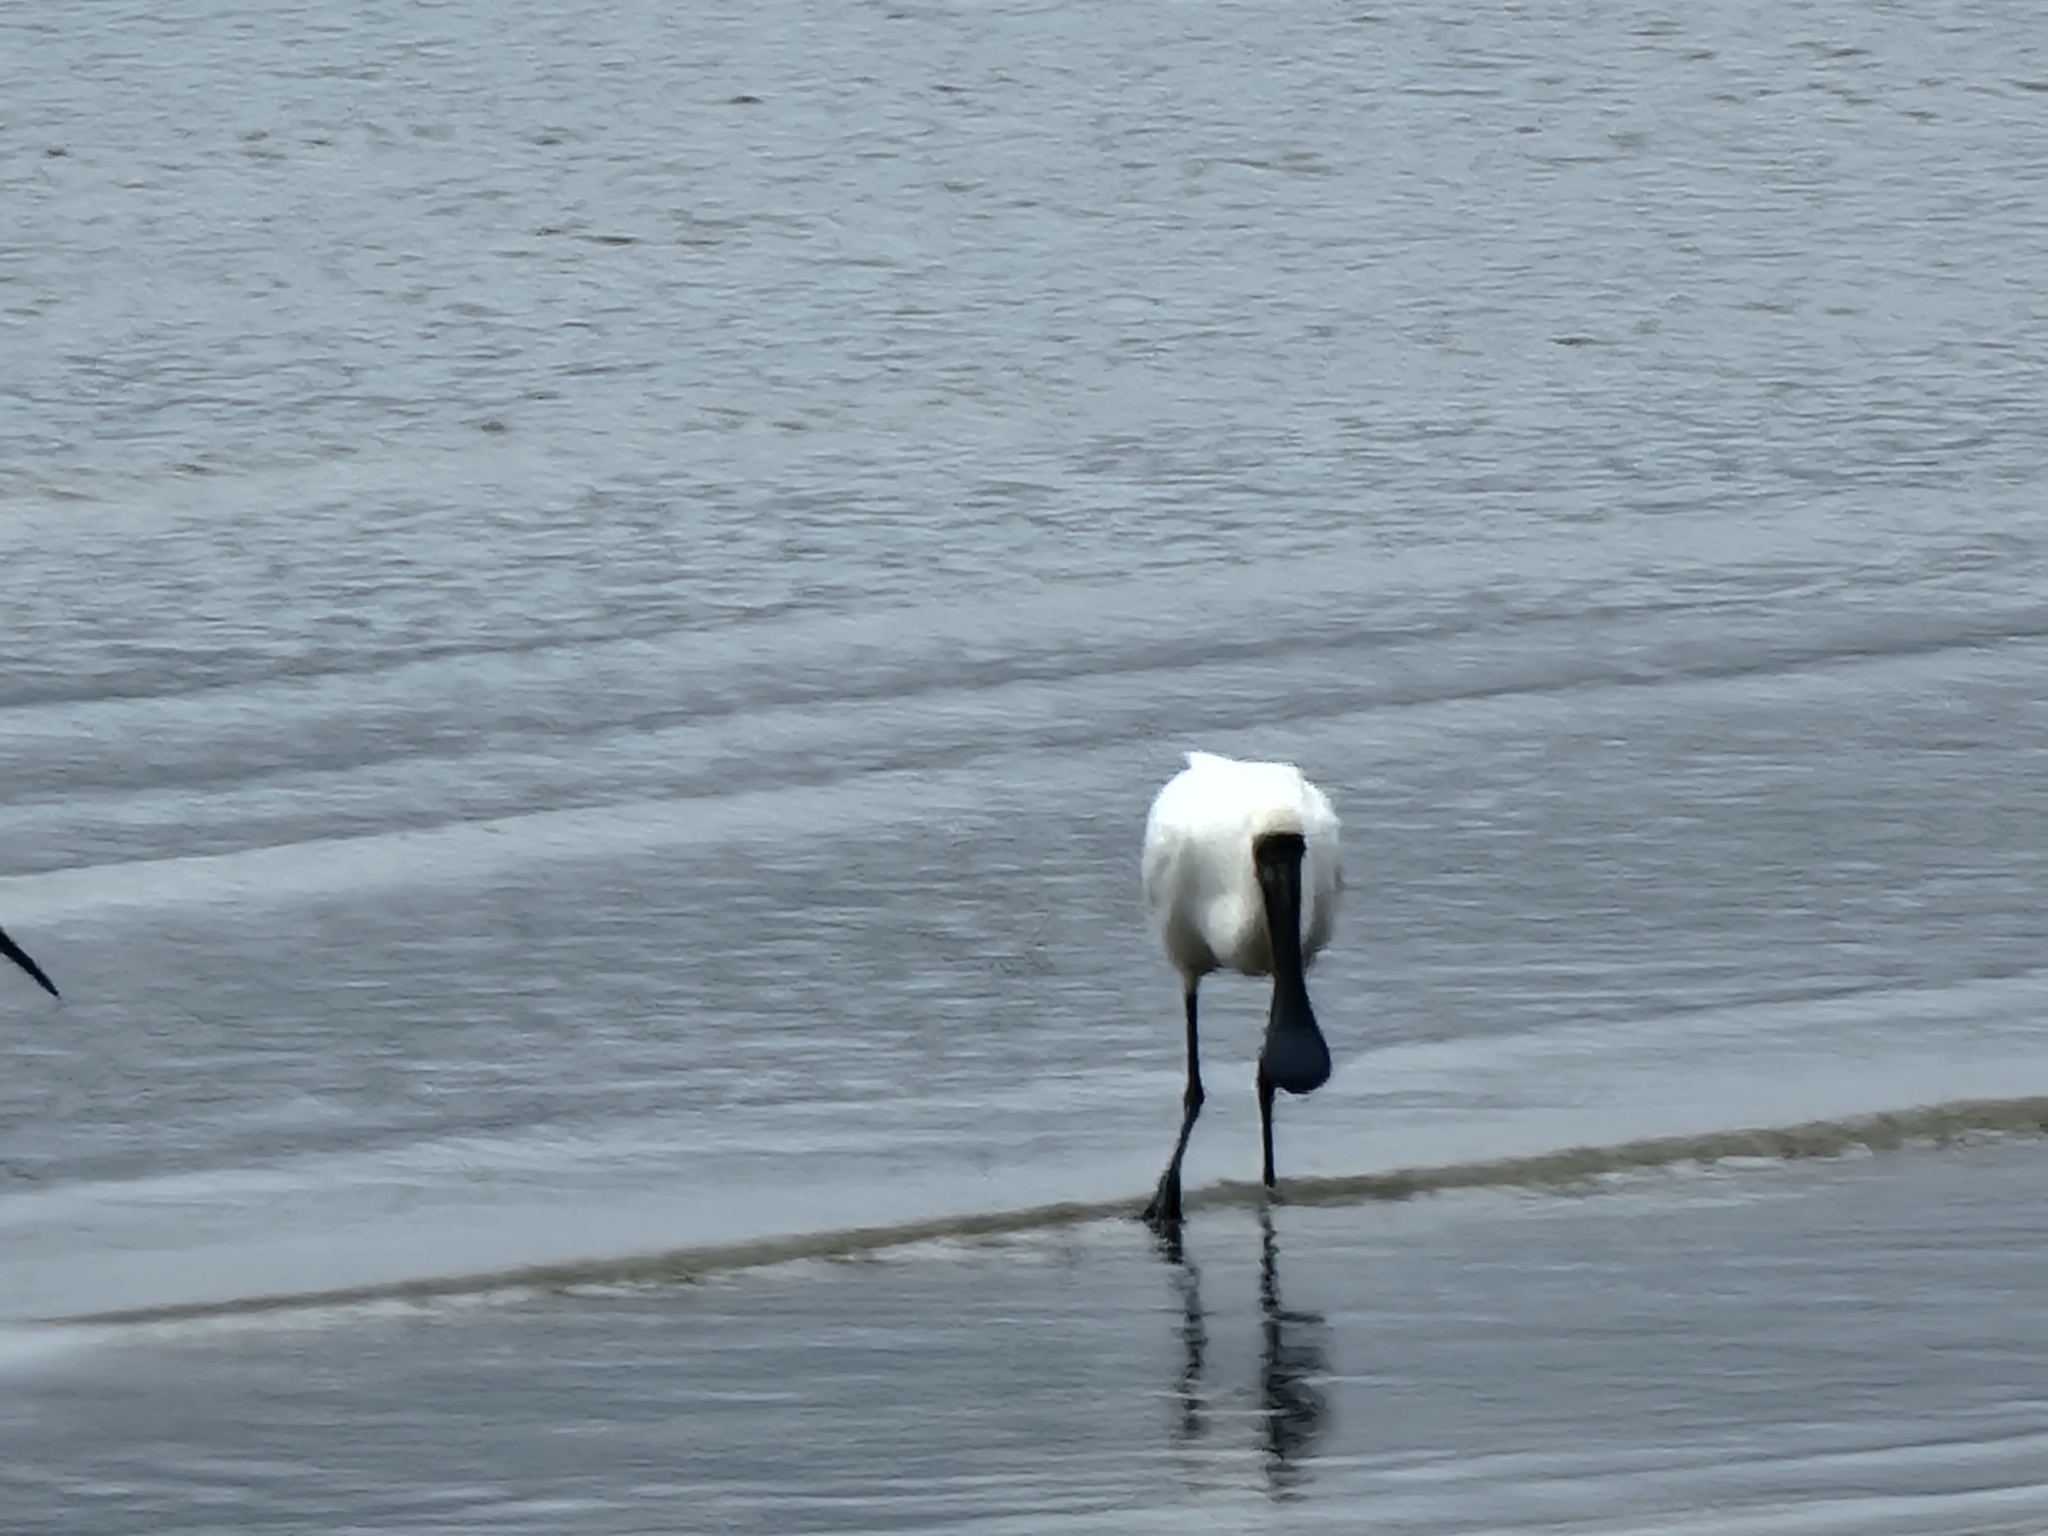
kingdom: Animalia
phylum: Chordata
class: Aves
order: Pelecaniformes
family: Threskiornithidae
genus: Platalea
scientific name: Platalea regia
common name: Royal spoonbill
